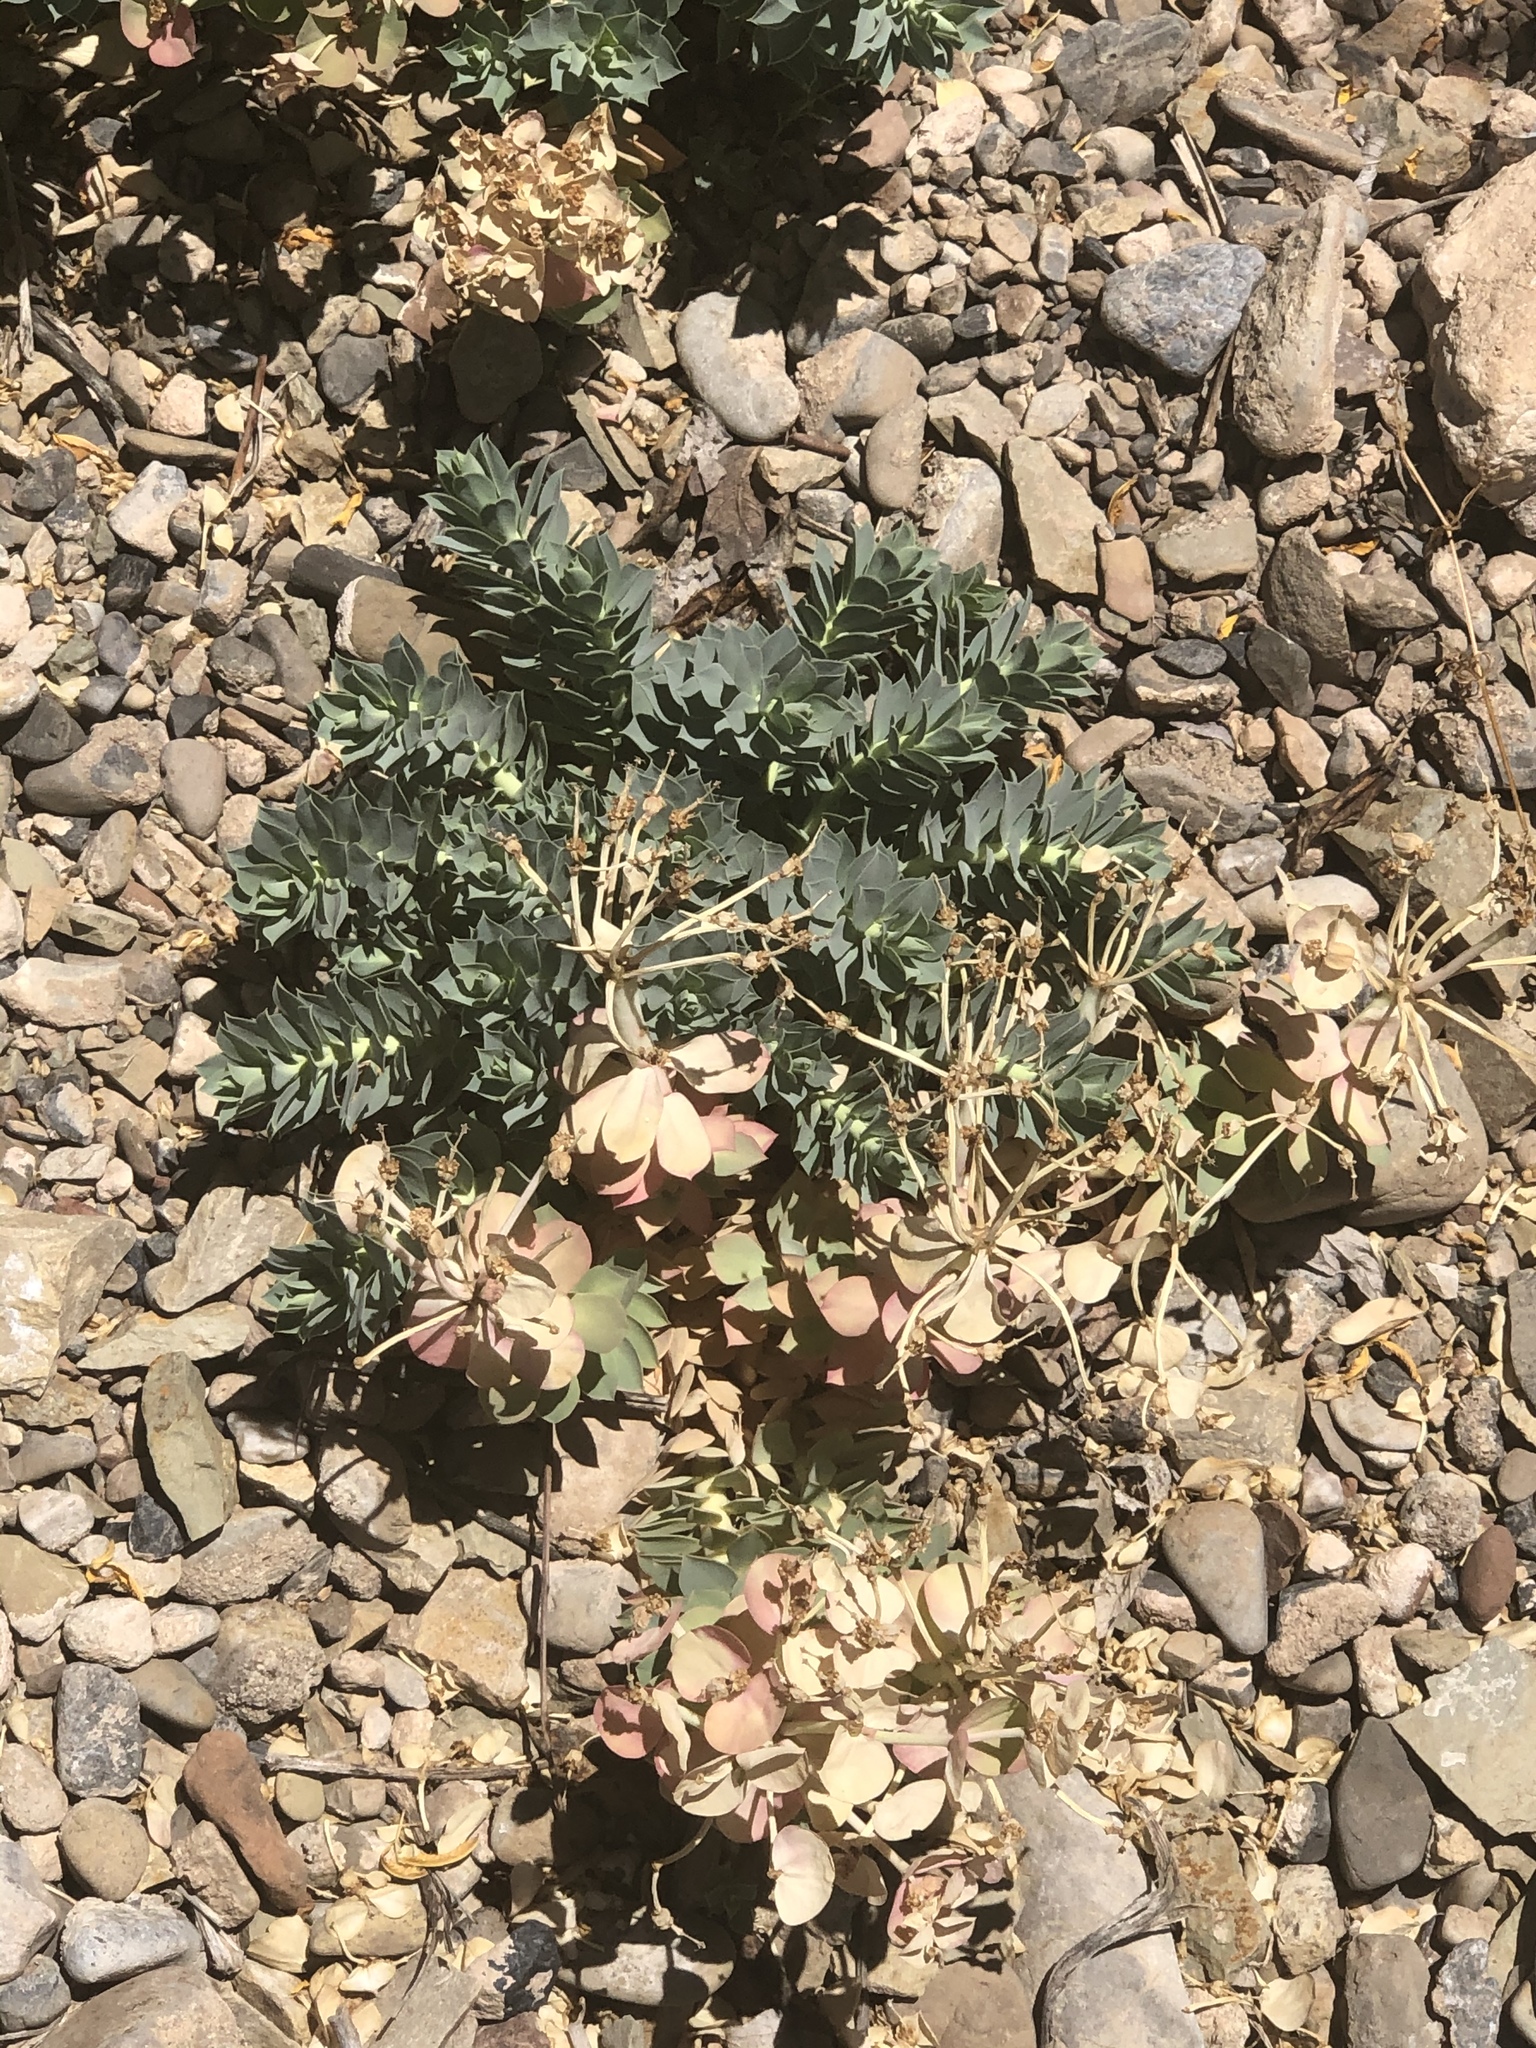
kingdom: Plantae
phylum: Tracheophyta
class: Magnoliopsida
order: Malpighiales
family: Euphorbiaceae
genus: Euphorbia
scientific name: Euphorbia myrsinites
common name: Myrtle spurge
